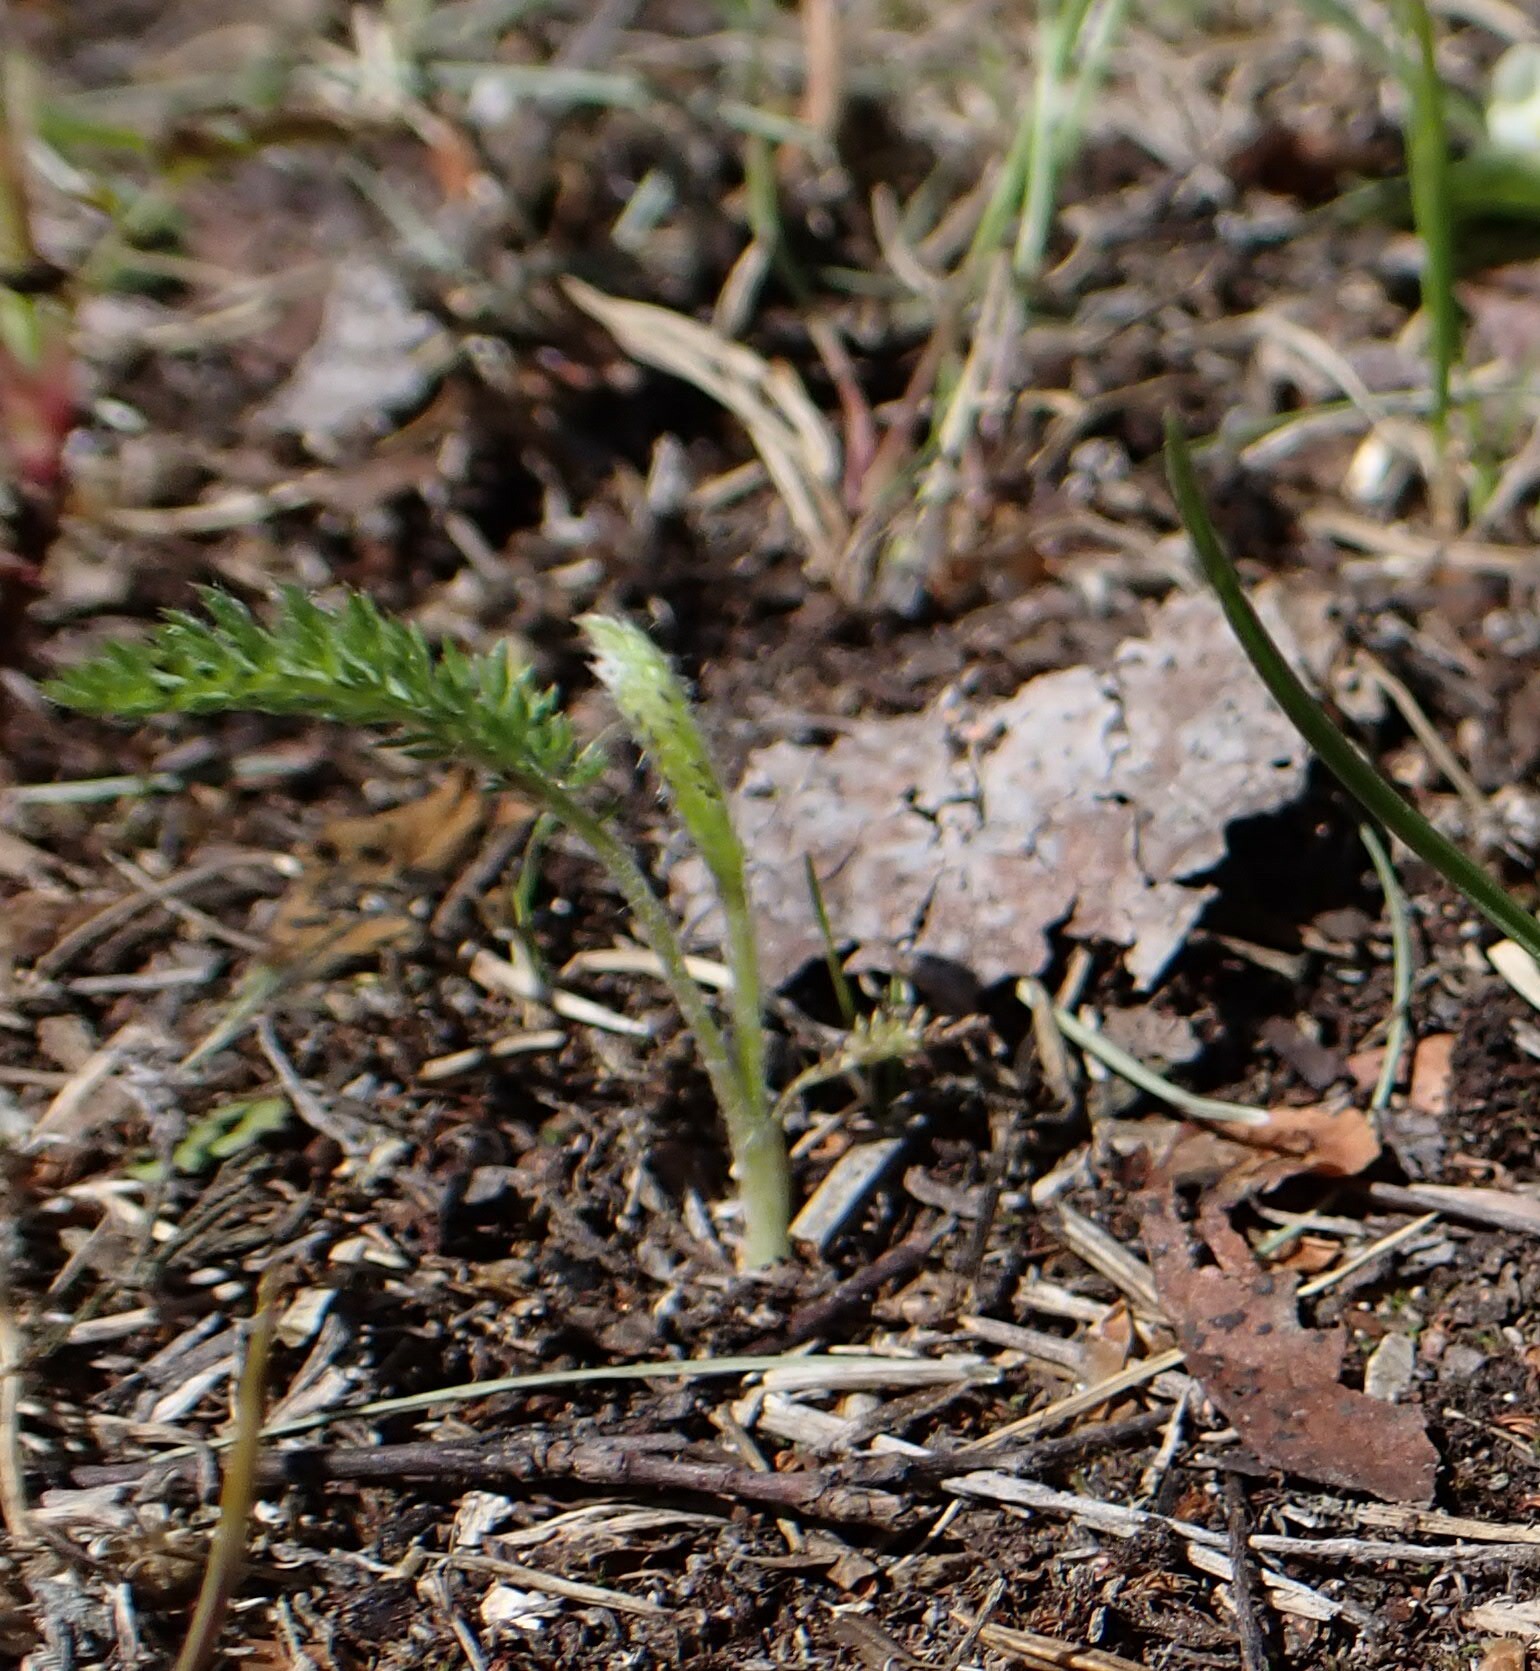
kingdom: Plantae
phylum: Tracheophyta
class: Magnoliopsida
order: Asterales
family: Asteraceae
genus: Achillea
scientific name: Achillea millefolium
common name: Yarrow
